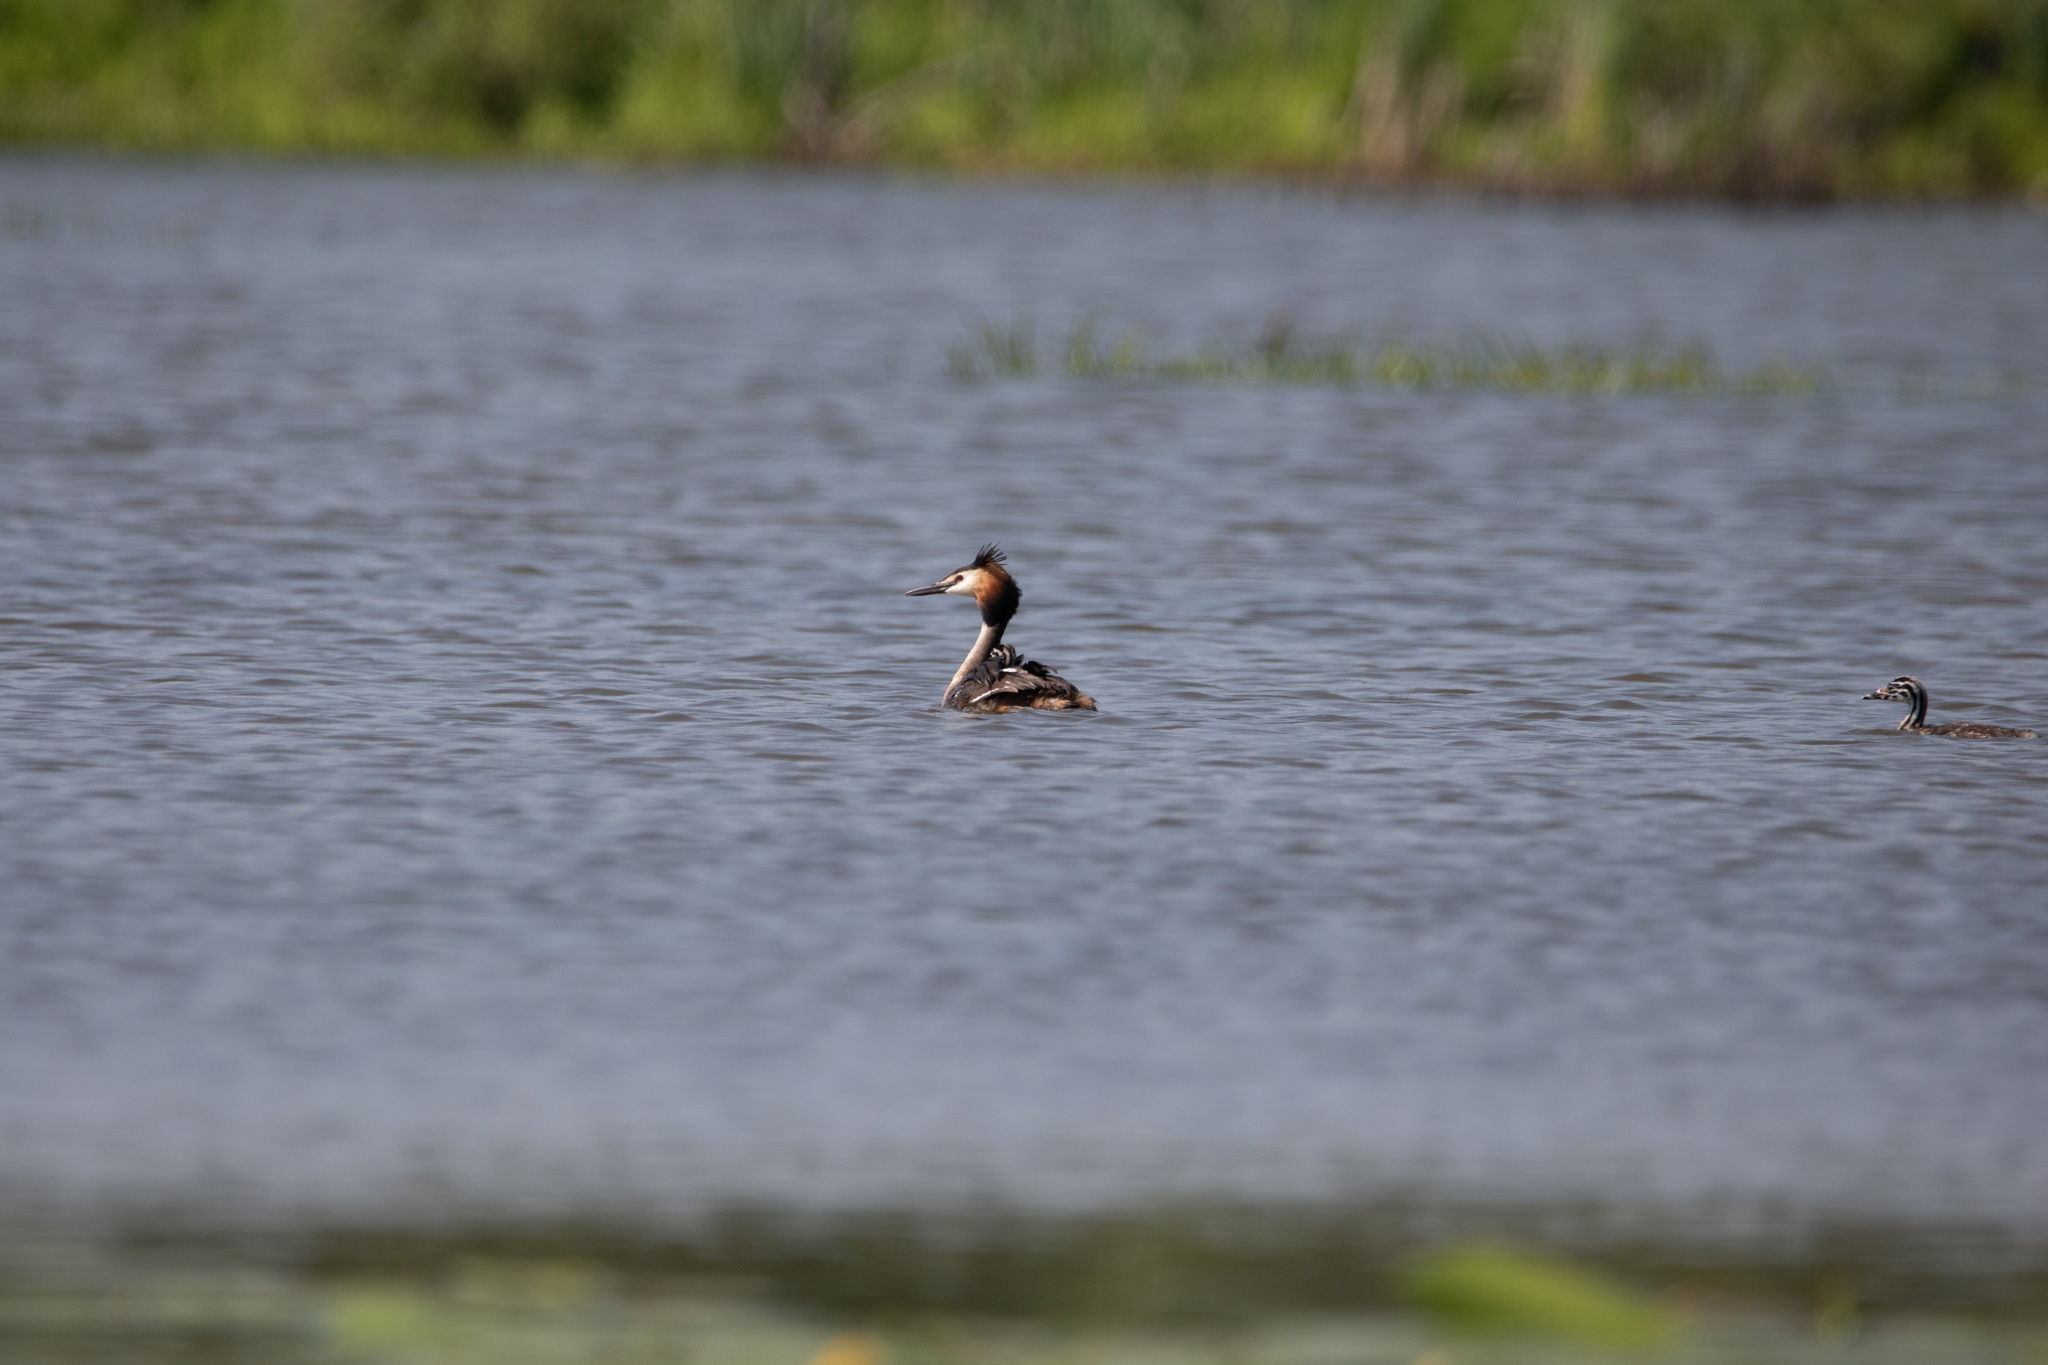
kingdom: Animalia
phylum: Chordata
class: Aves
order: Podicipediformes
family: Podicipedidae
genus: Podiceps
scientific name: Podiceps cristatus
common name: Great crested grebe
